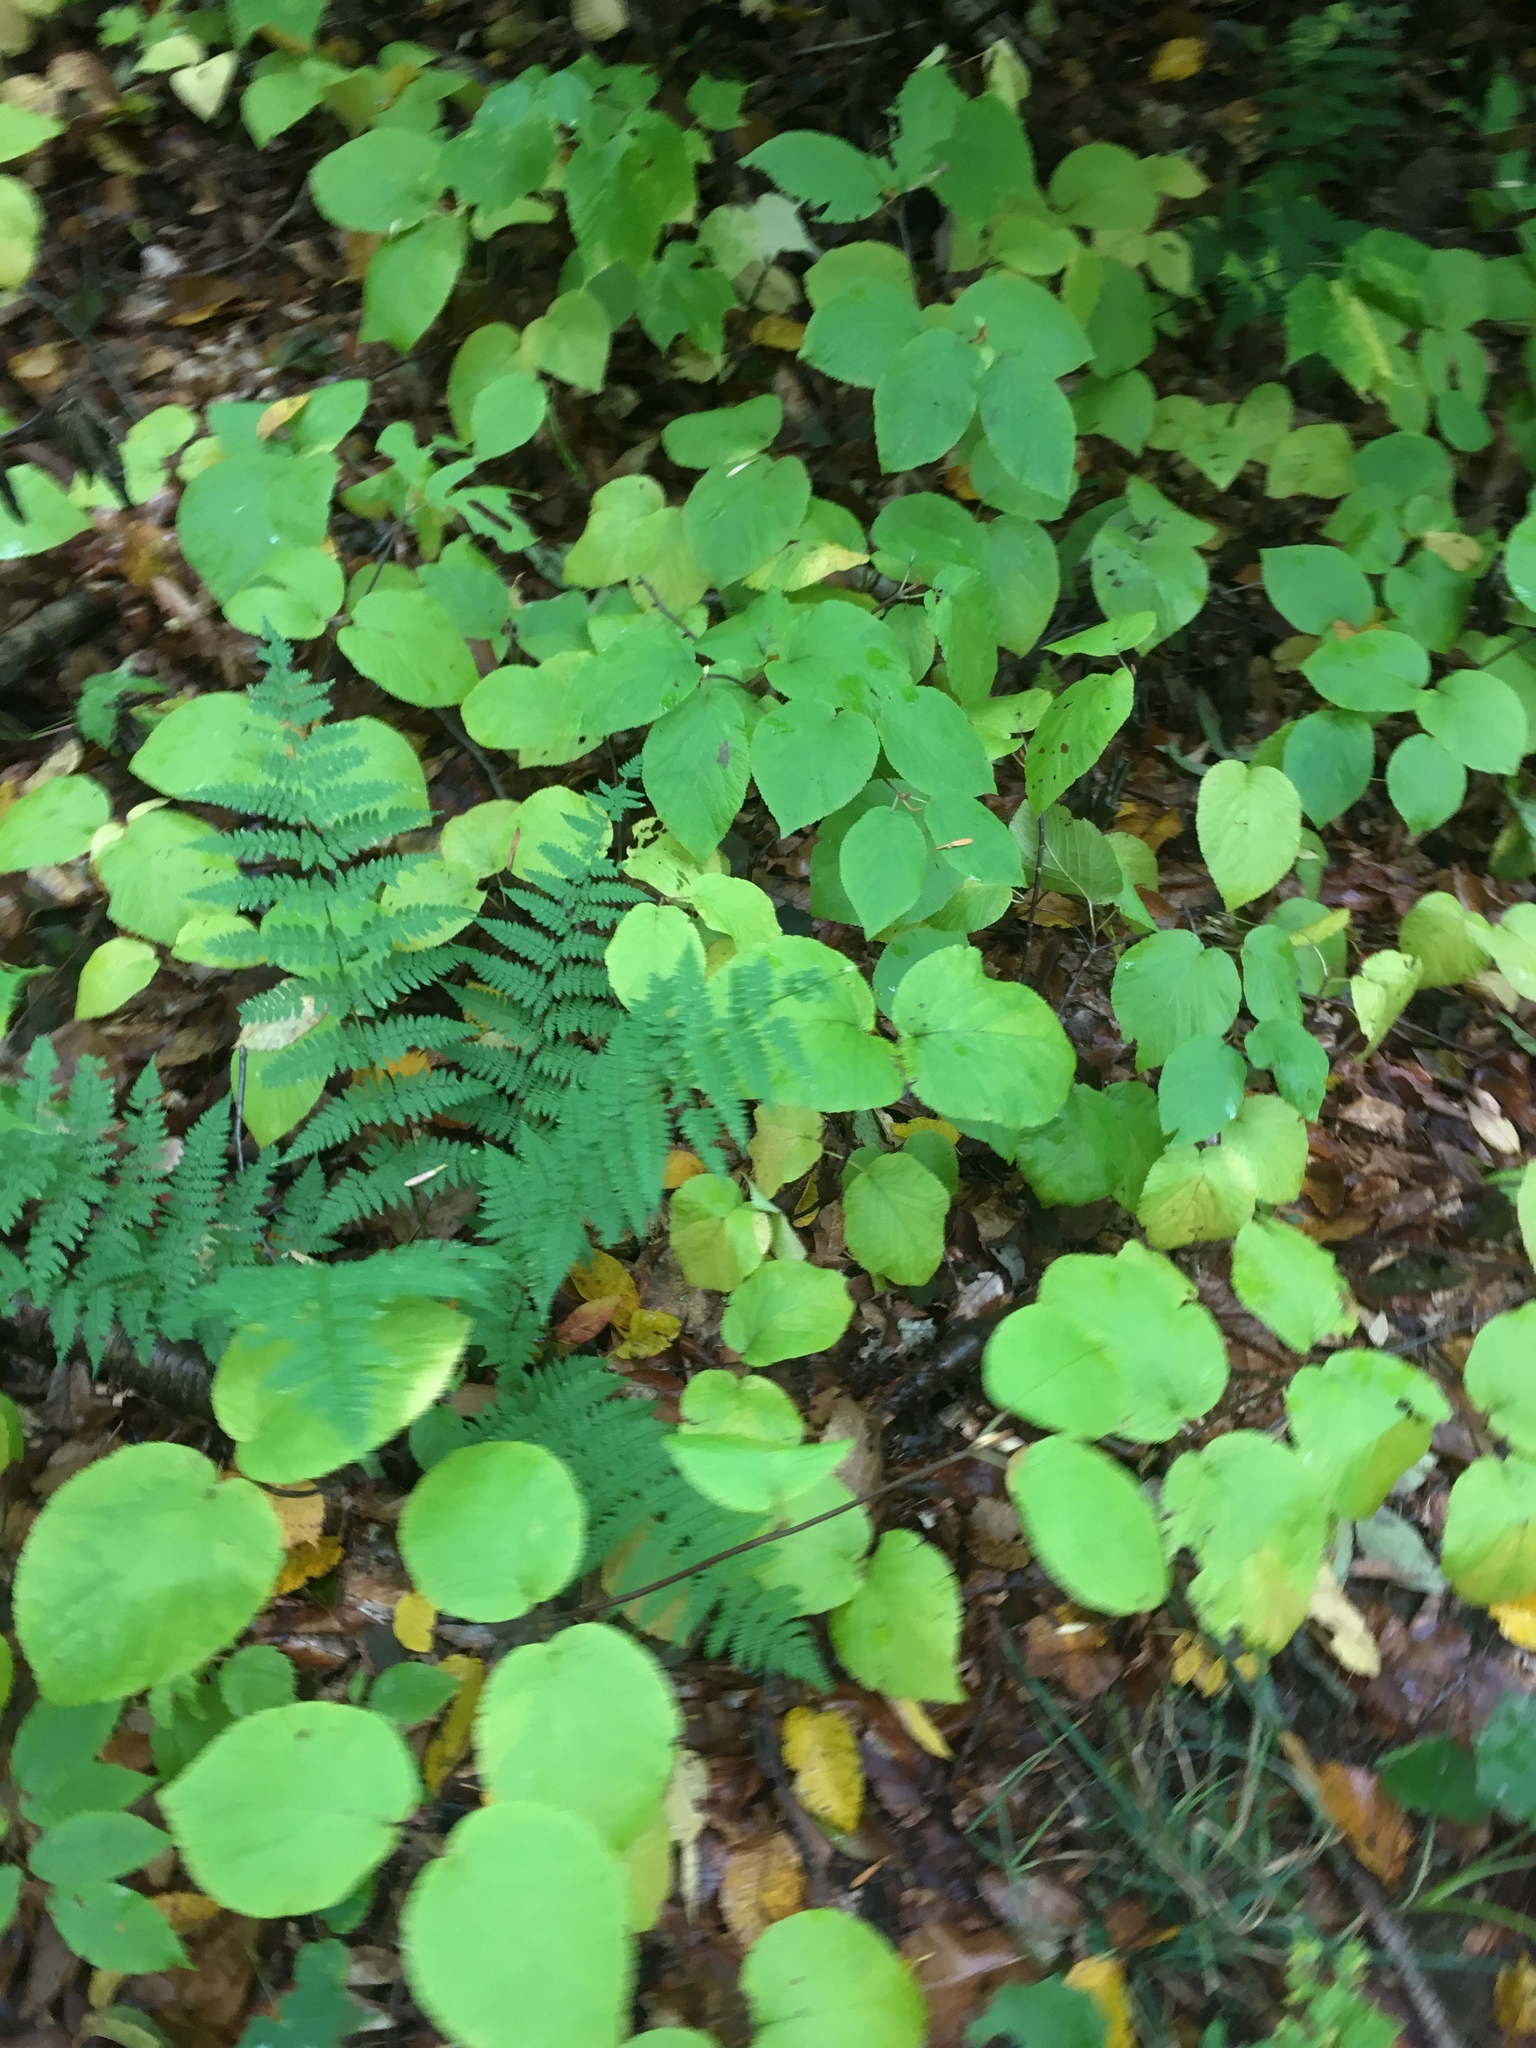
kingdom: Plantae
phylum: Tracheophyta
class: Magnoliopsida
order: Dipsacales
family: Viburnaceae
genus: Viburnum
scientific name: Viburnum lantanoides
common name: Hobblebush
